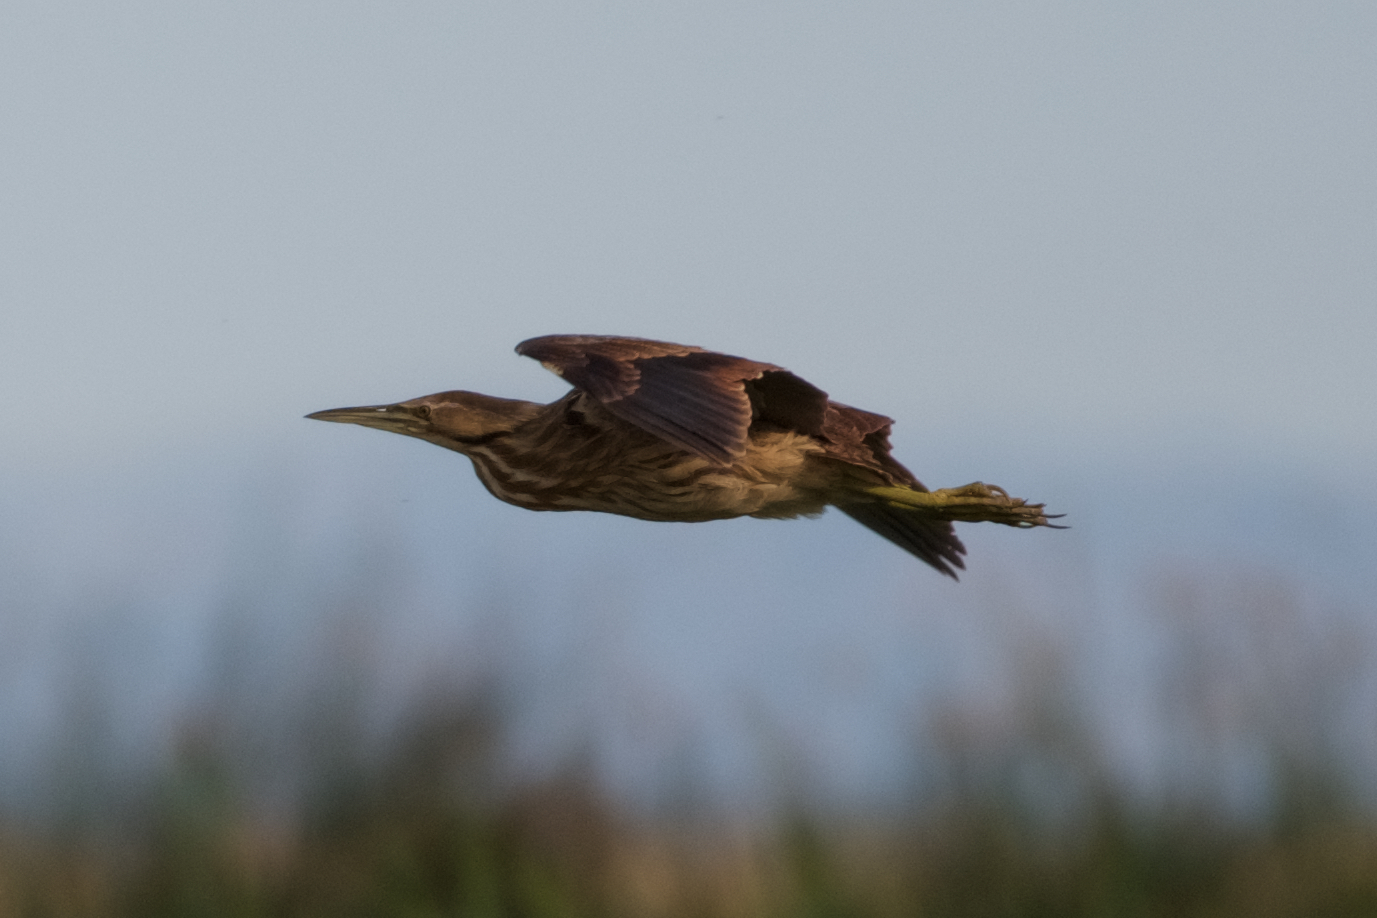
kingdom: Animalia
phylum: Chordata
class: Aves
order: Pelecaniformes
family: Ardeidae
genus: Botaurus
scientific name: Botaurus lentiginosus
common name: American bittern
